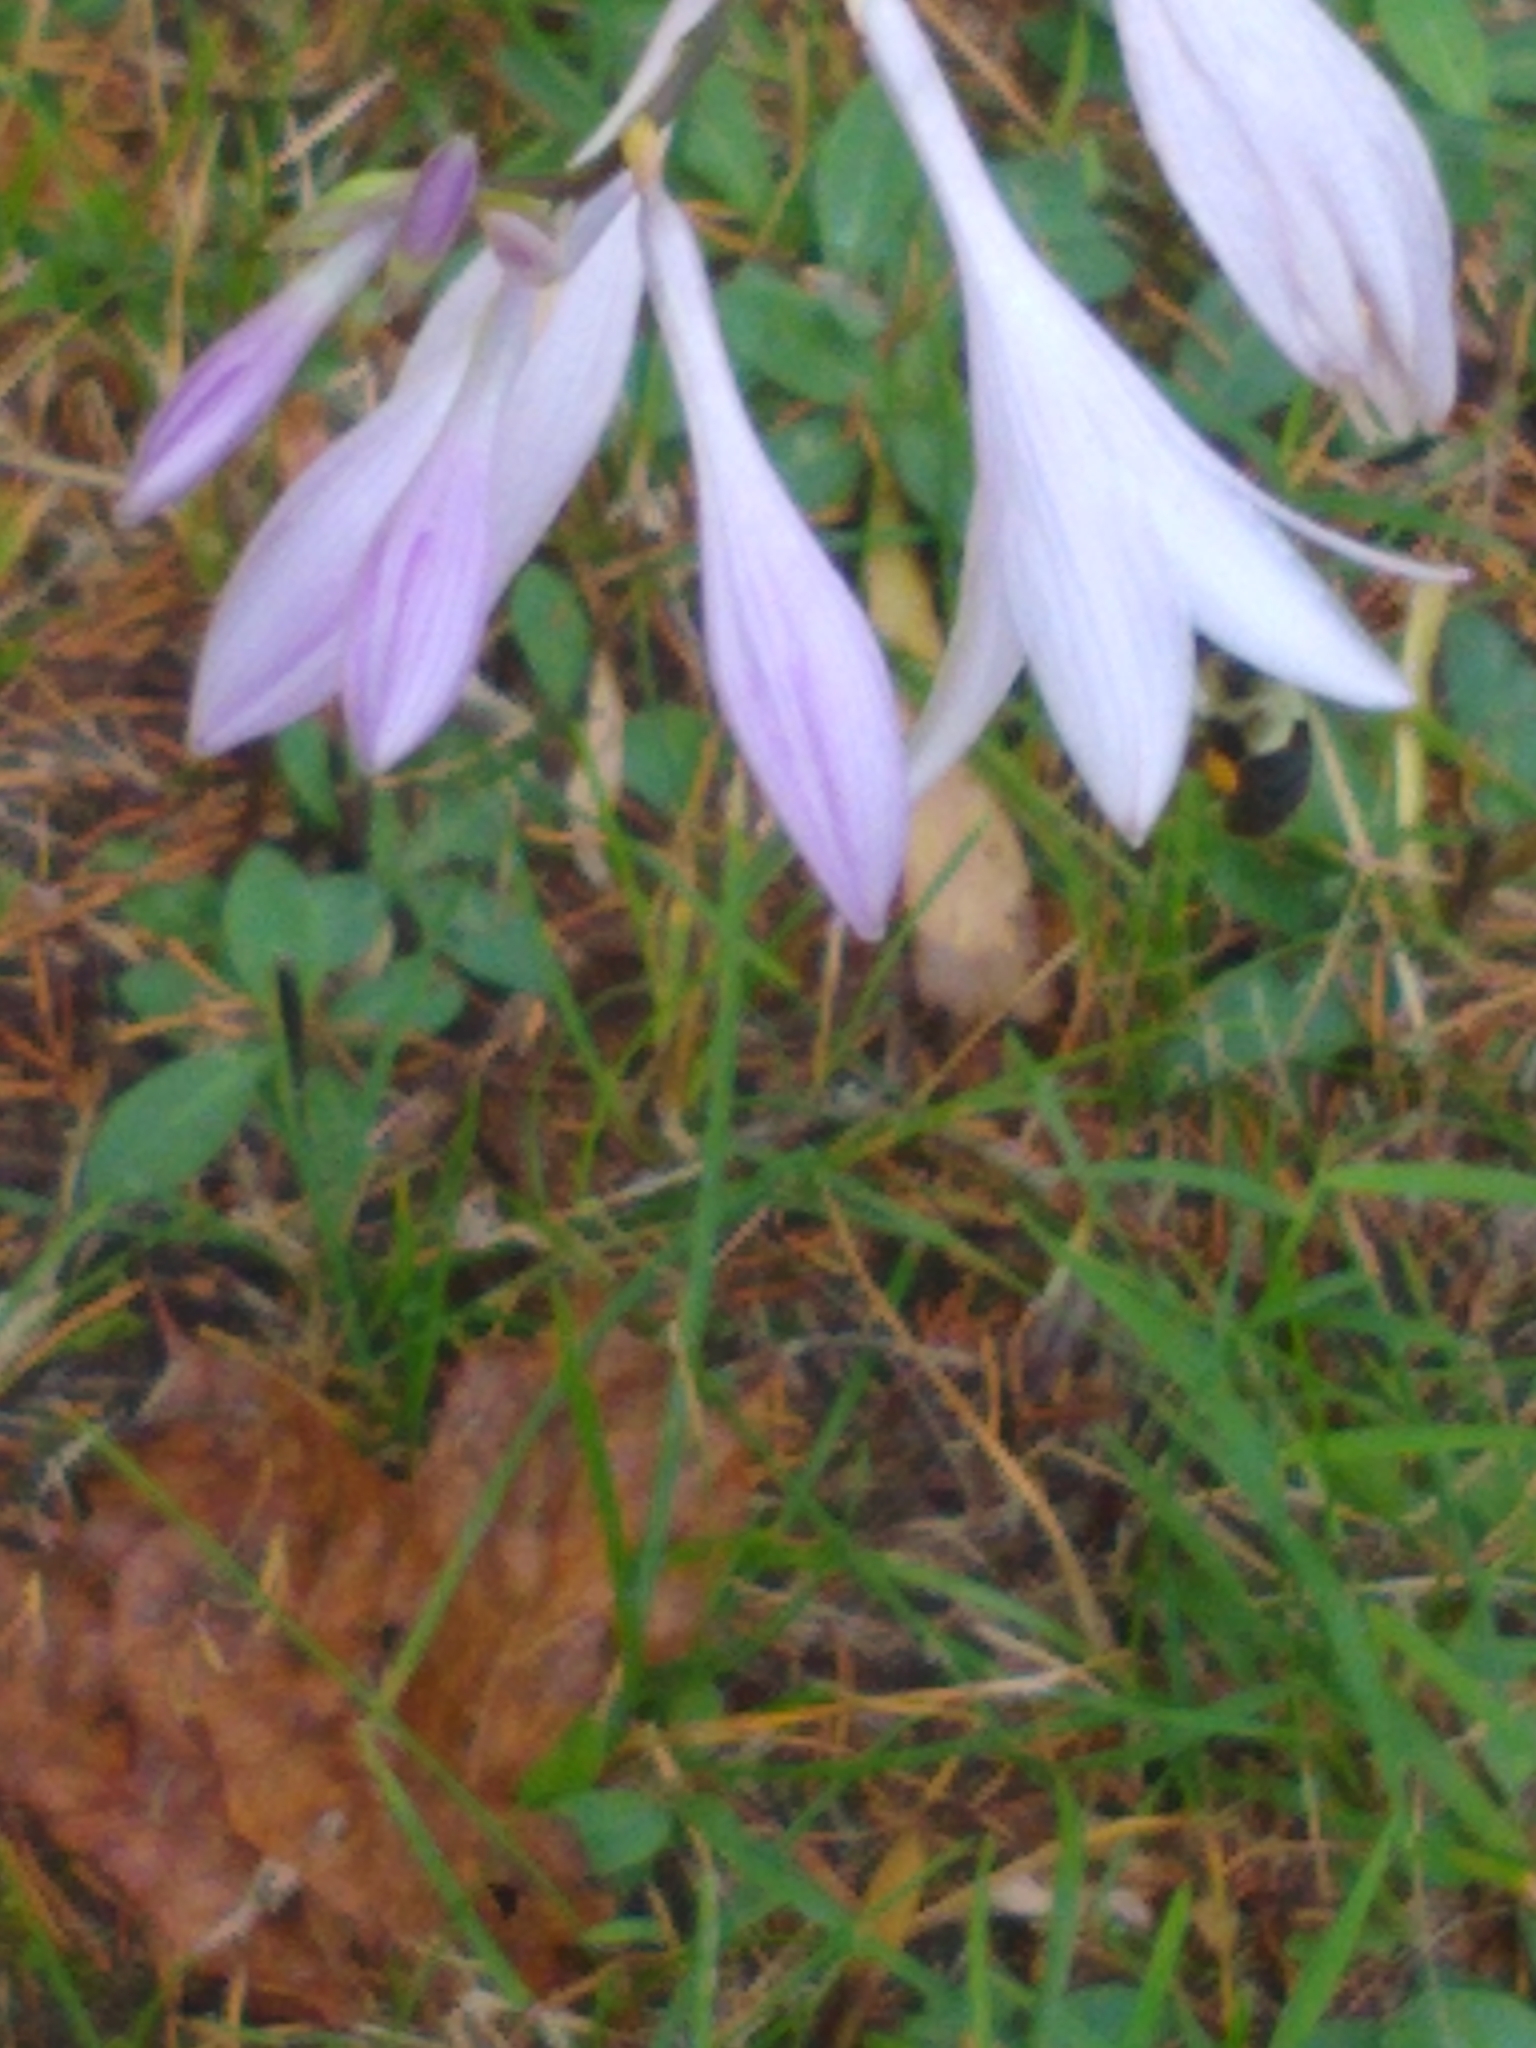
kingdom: Animalia
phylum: Arthropoda
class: Insecta
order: Hymenoptera
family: Apidae
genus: Bombus
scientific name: Bombus impatiens
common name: Common eastern bumble bee
